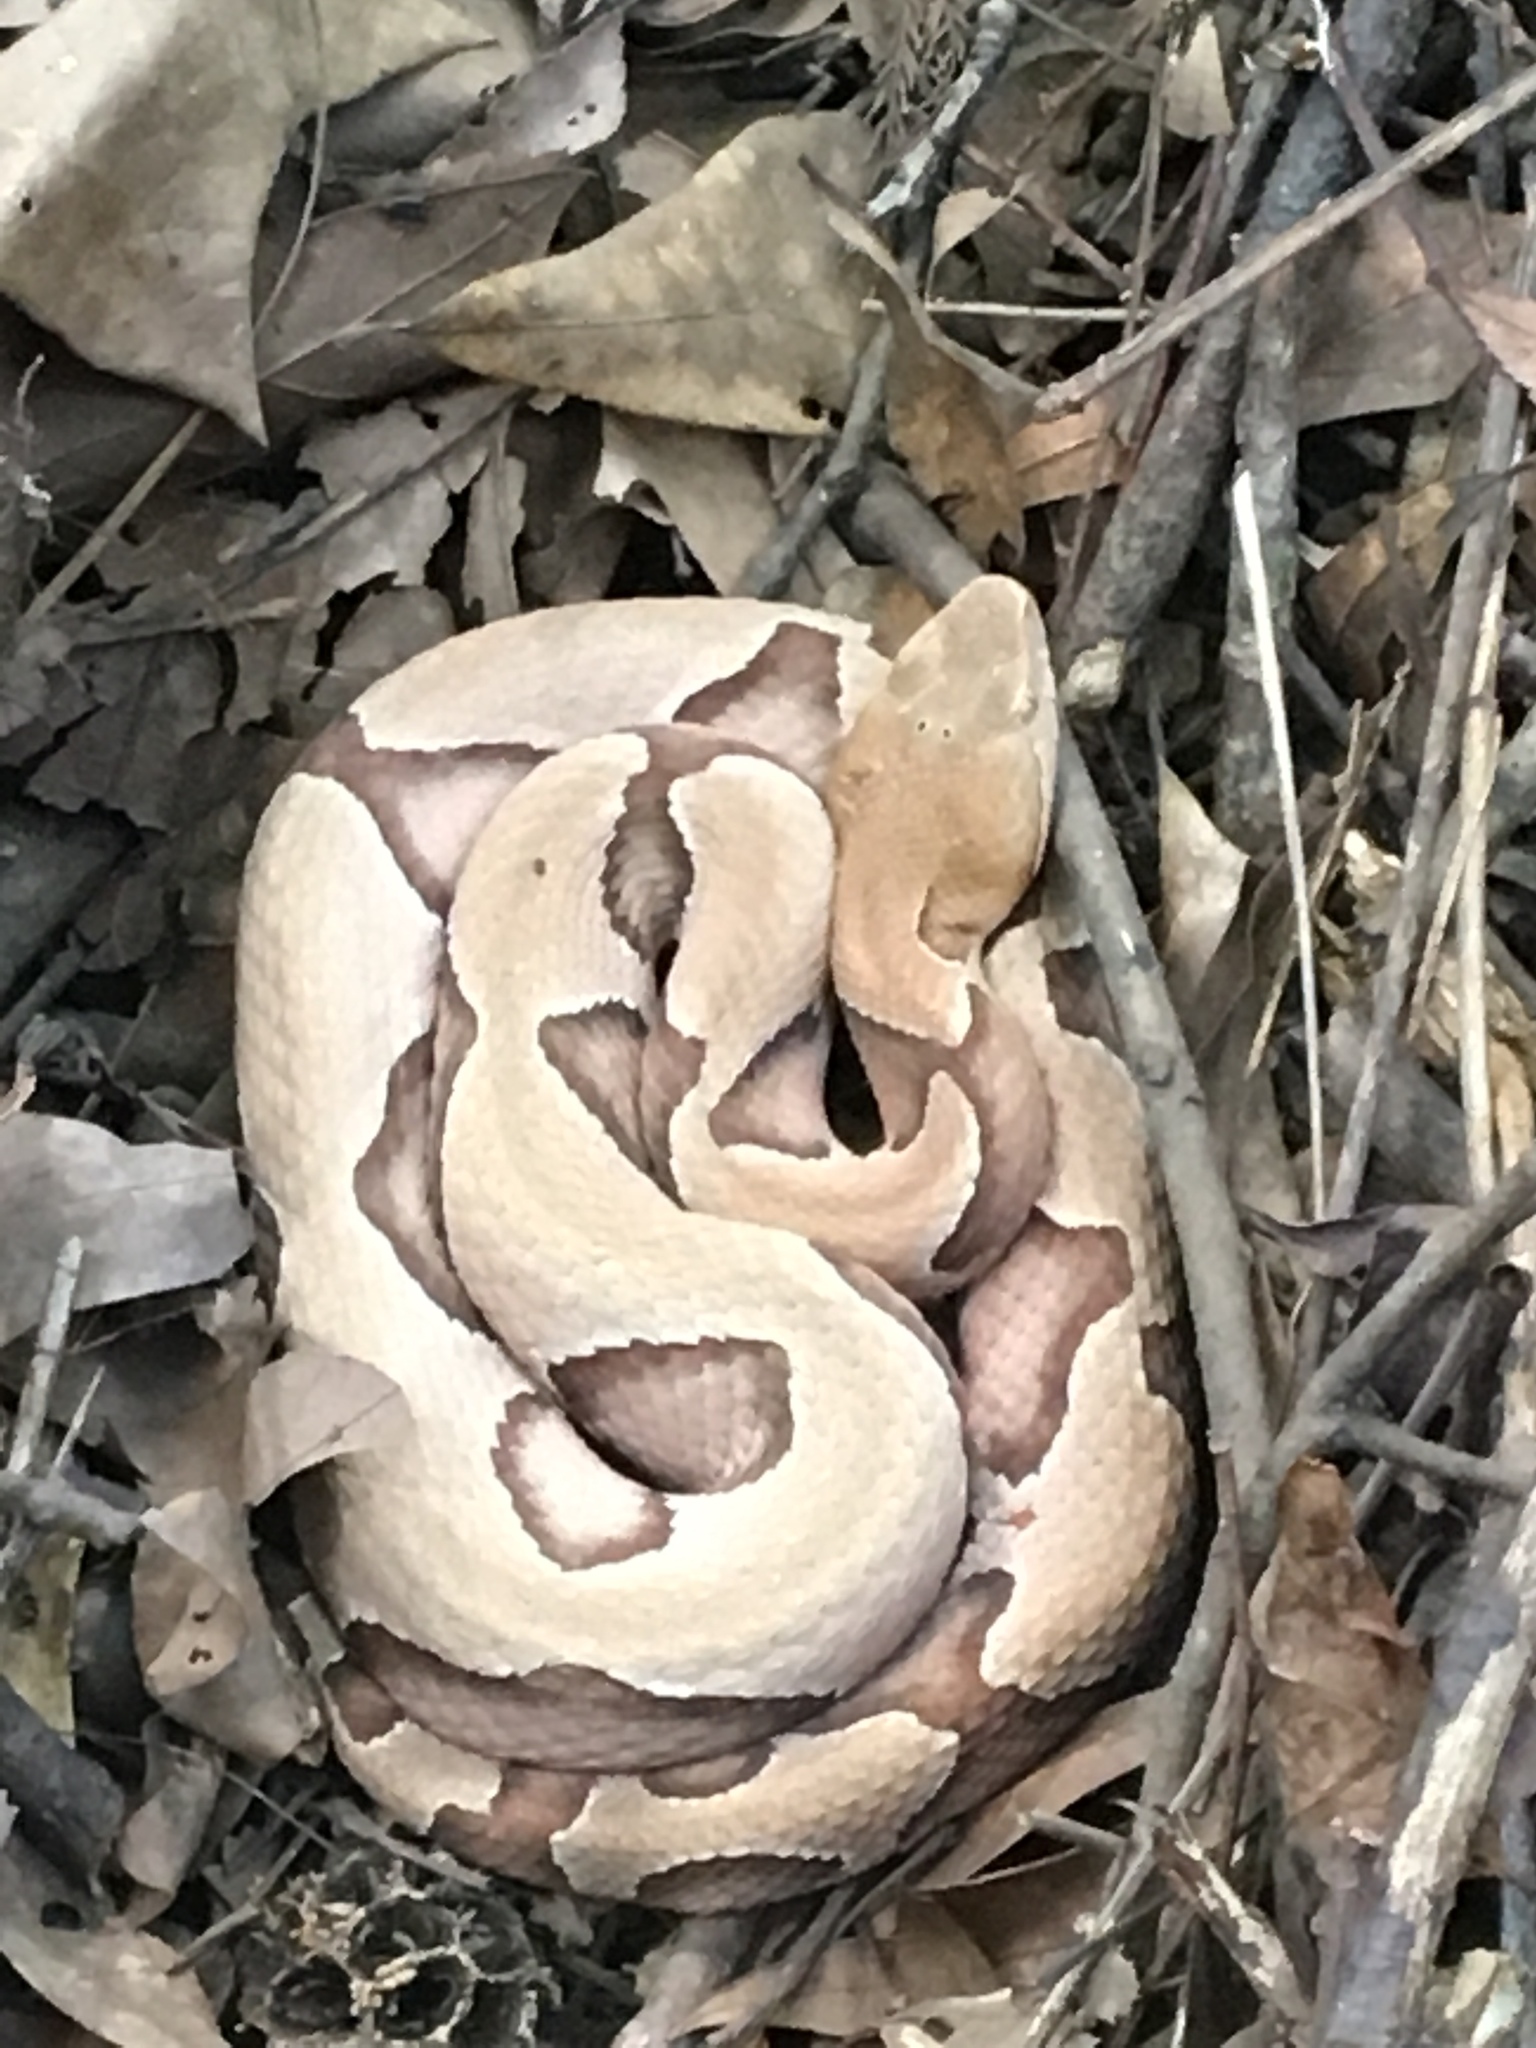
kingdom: Animalia
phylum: Chordata
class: Squamata
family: Viperidae
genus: Agkistrodon
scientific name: Agkistrodon contortrix
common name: Northern copperhead
